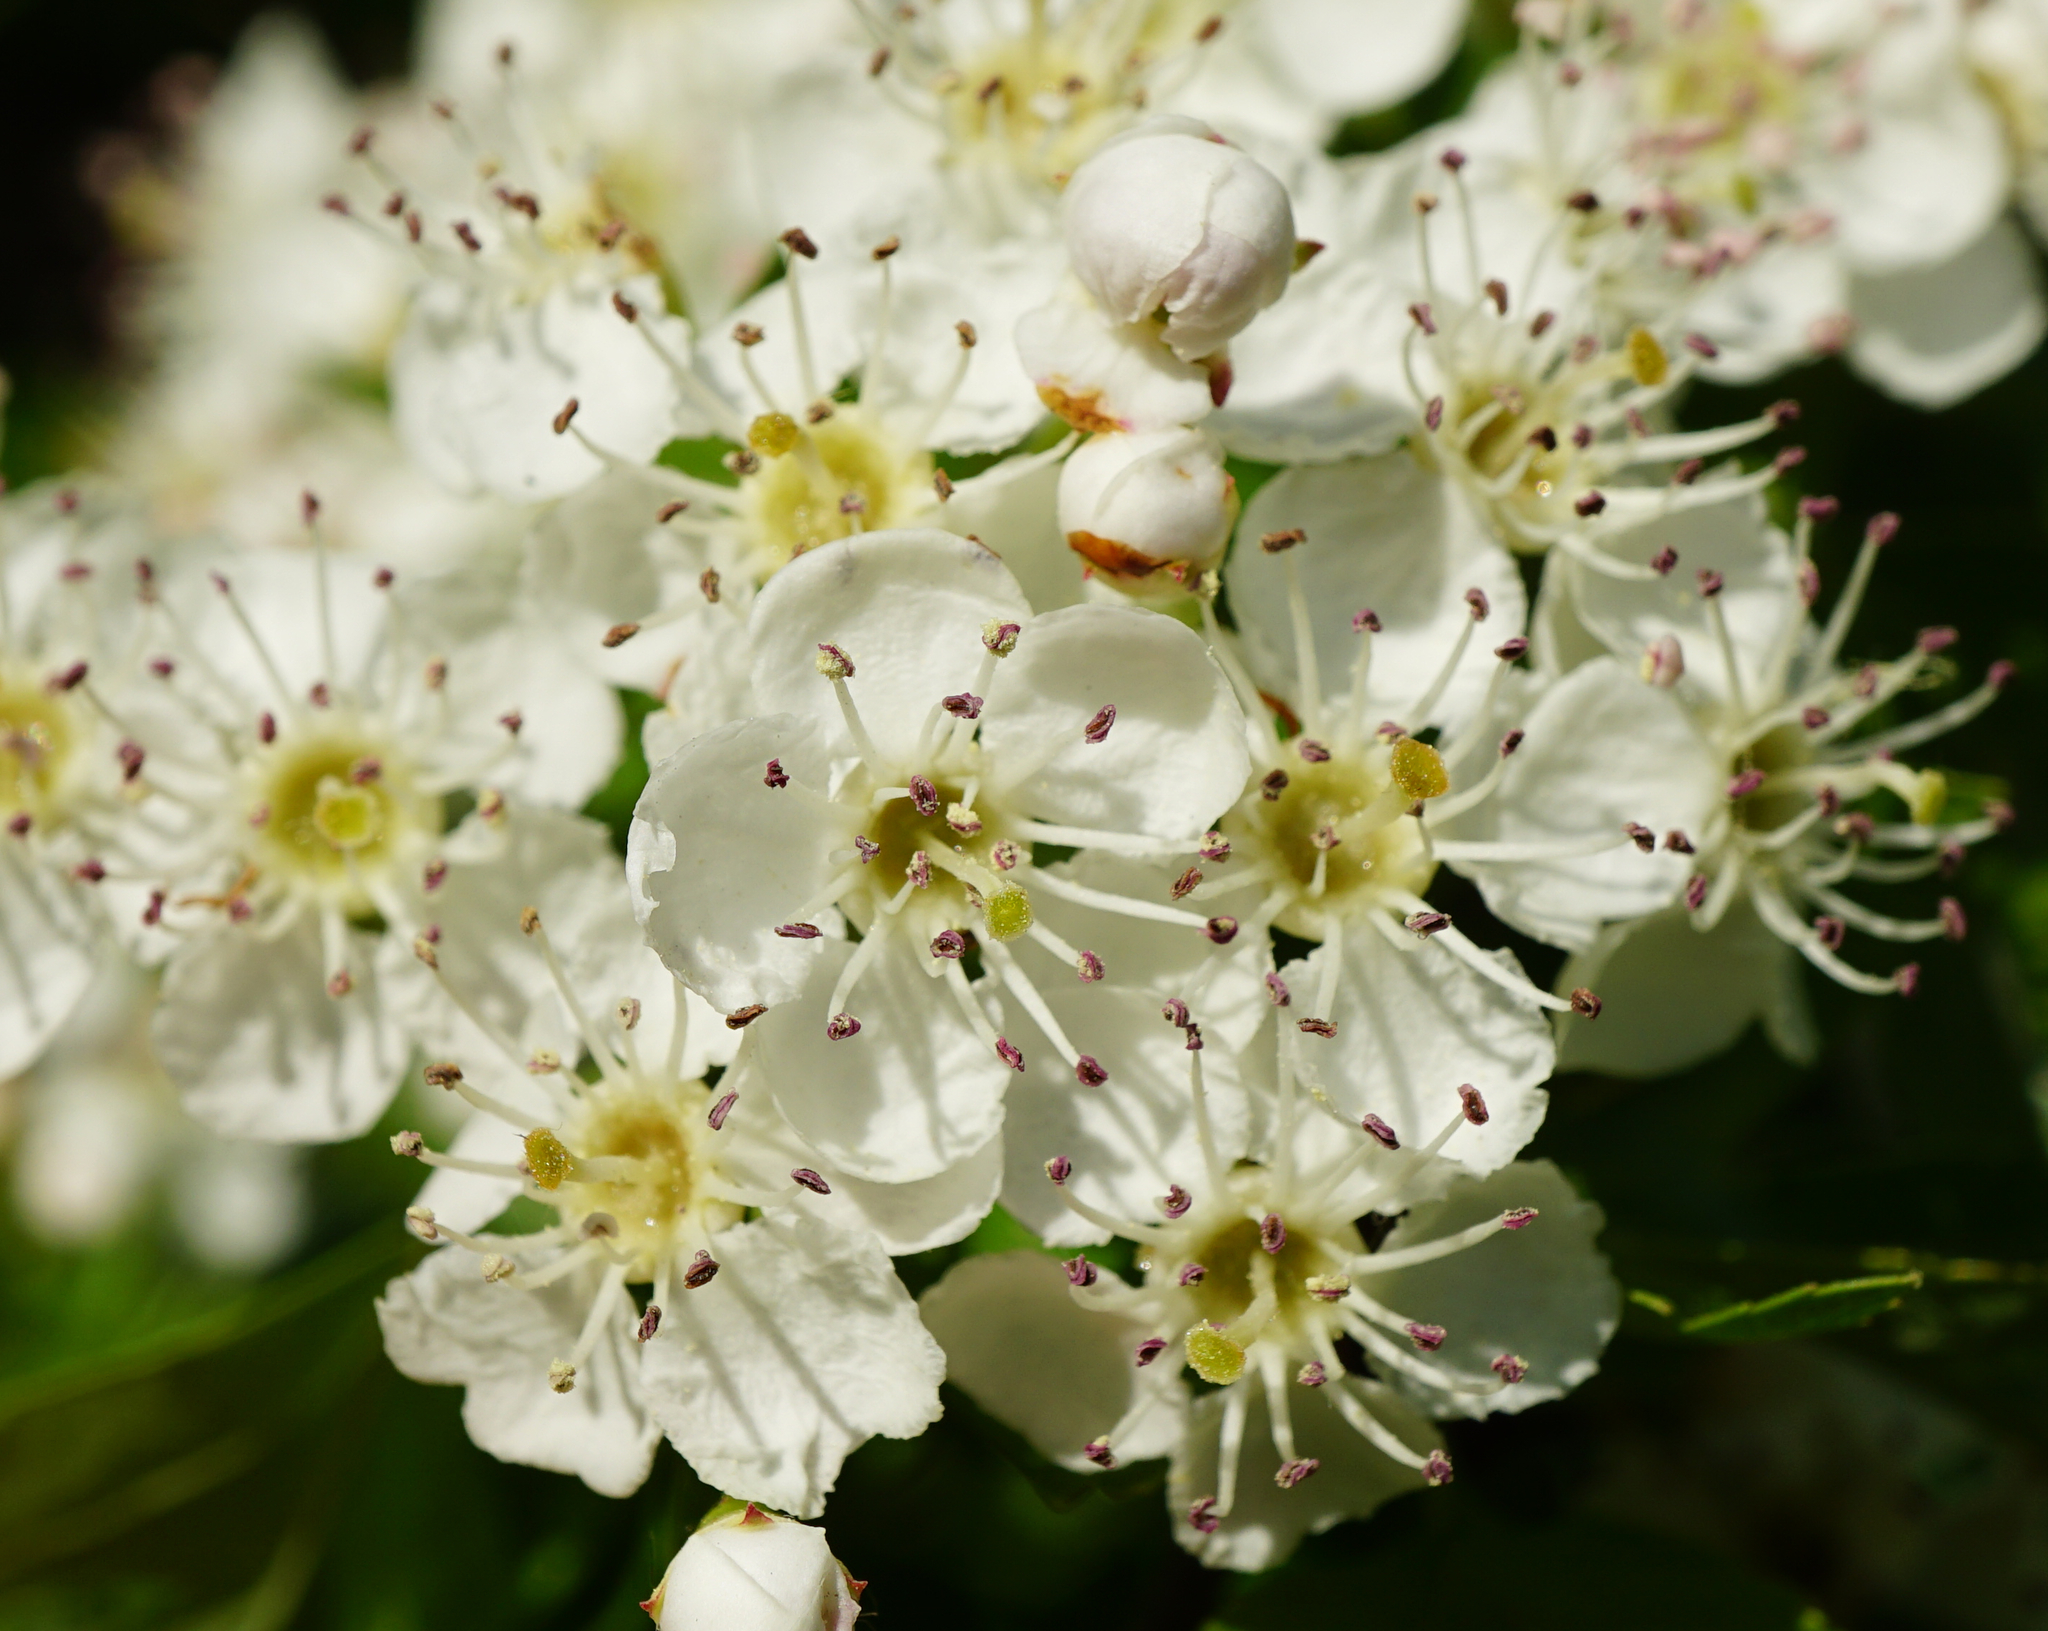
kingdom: Plantae
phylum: Tracheophyta
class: Magnoliopsida
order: Rosales
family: Rosaceae
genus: Crataegus
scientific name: Crataegus monogyna
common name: Hawthorn
